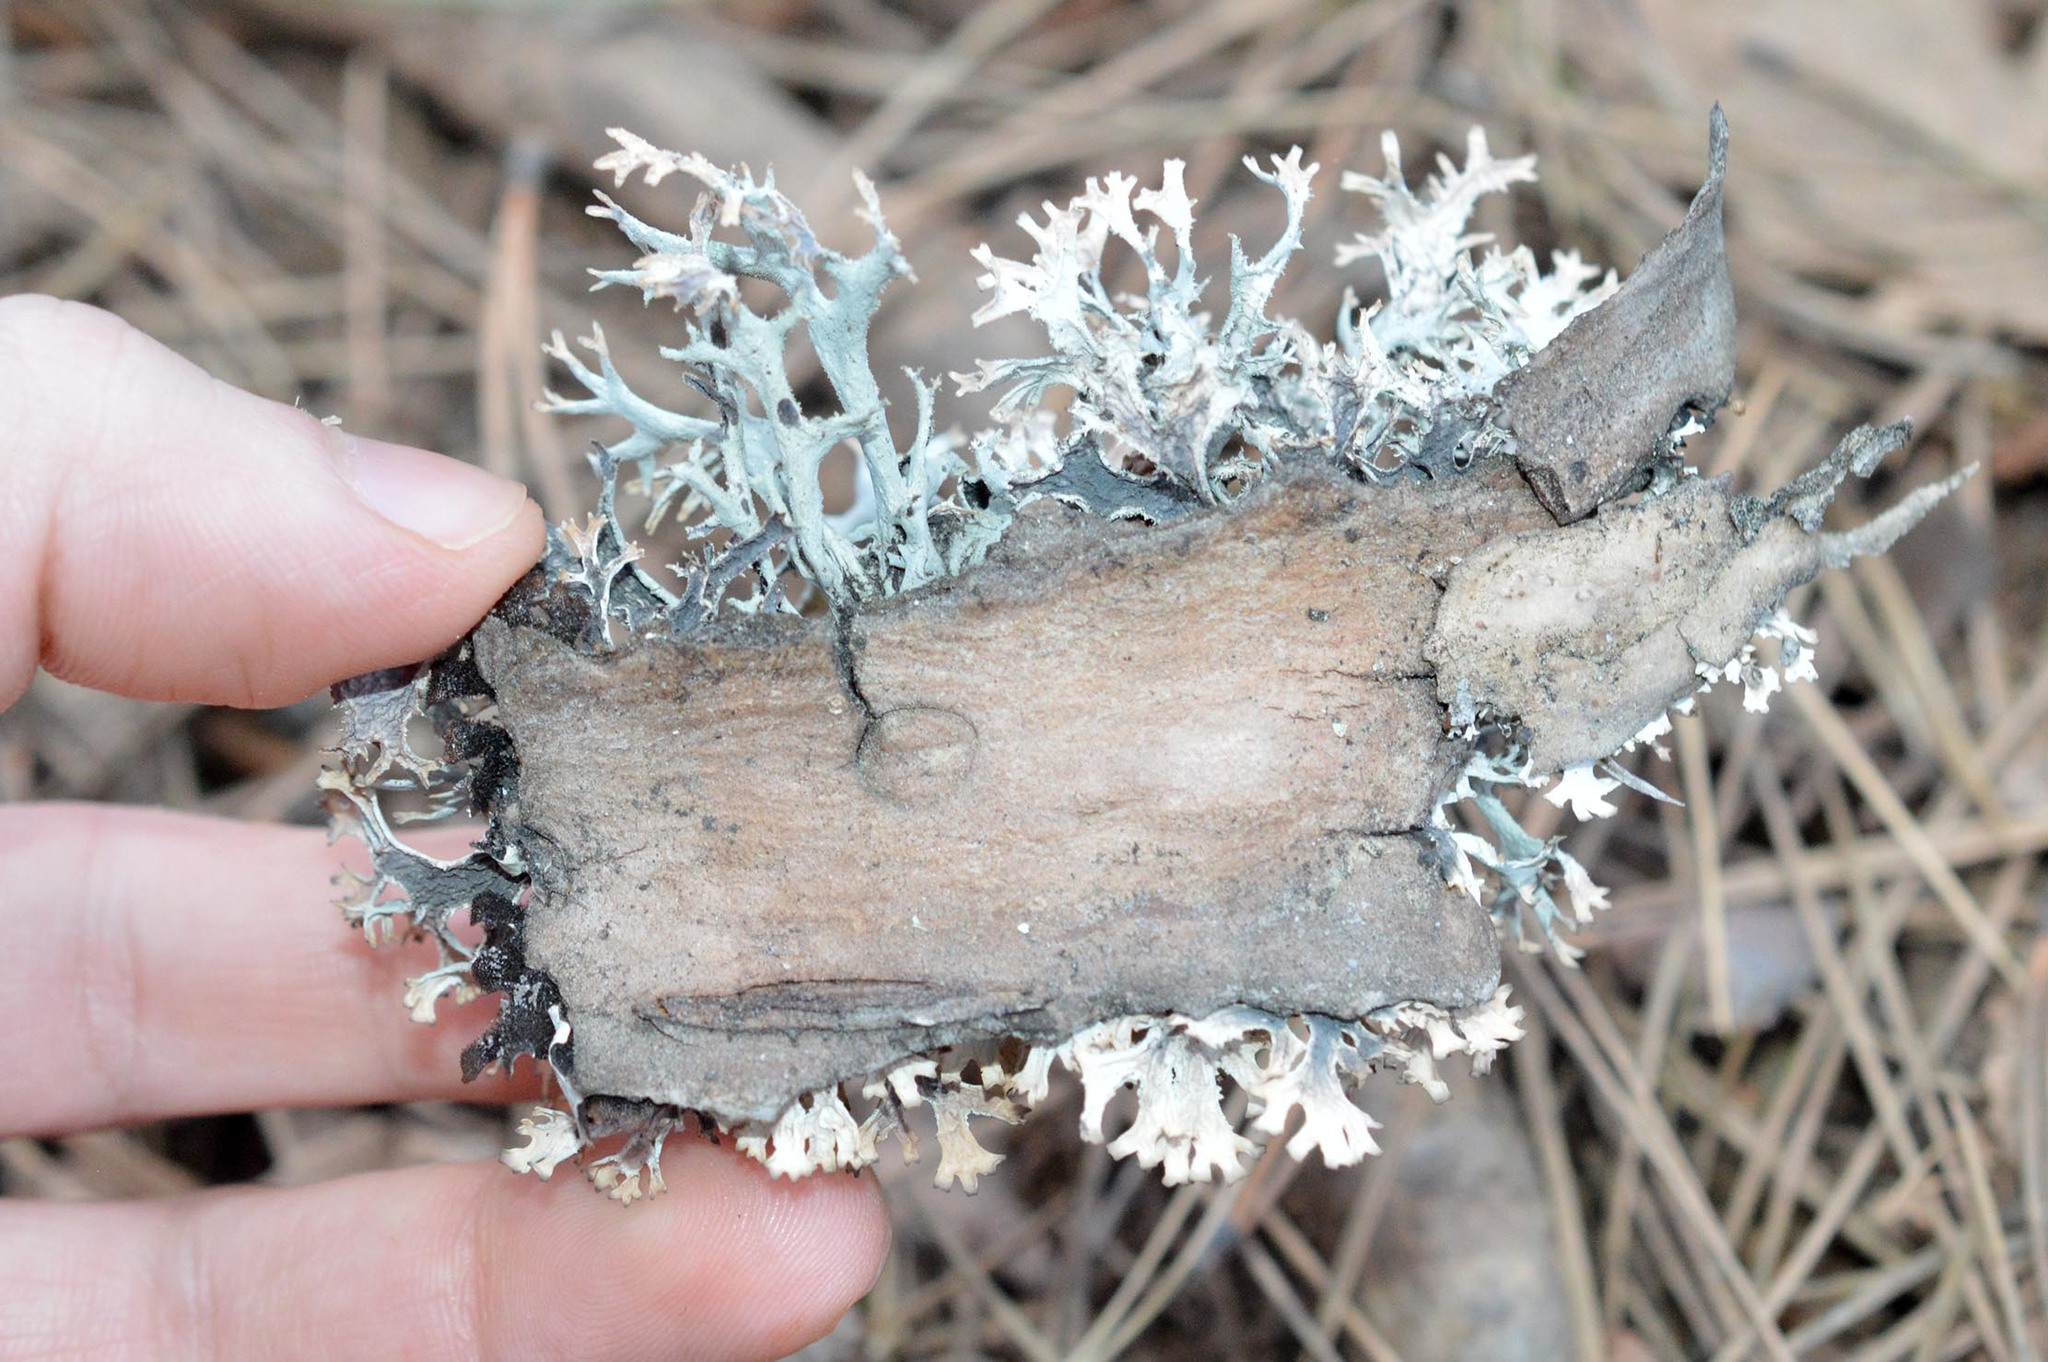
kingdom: Fungi
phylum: Ascomycota
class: Lecanoromycetes
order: Lecanorales
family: Parmeliaceae
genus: Pseudevernia
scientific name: Pseudevernia furfuracea
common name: Tree moss
